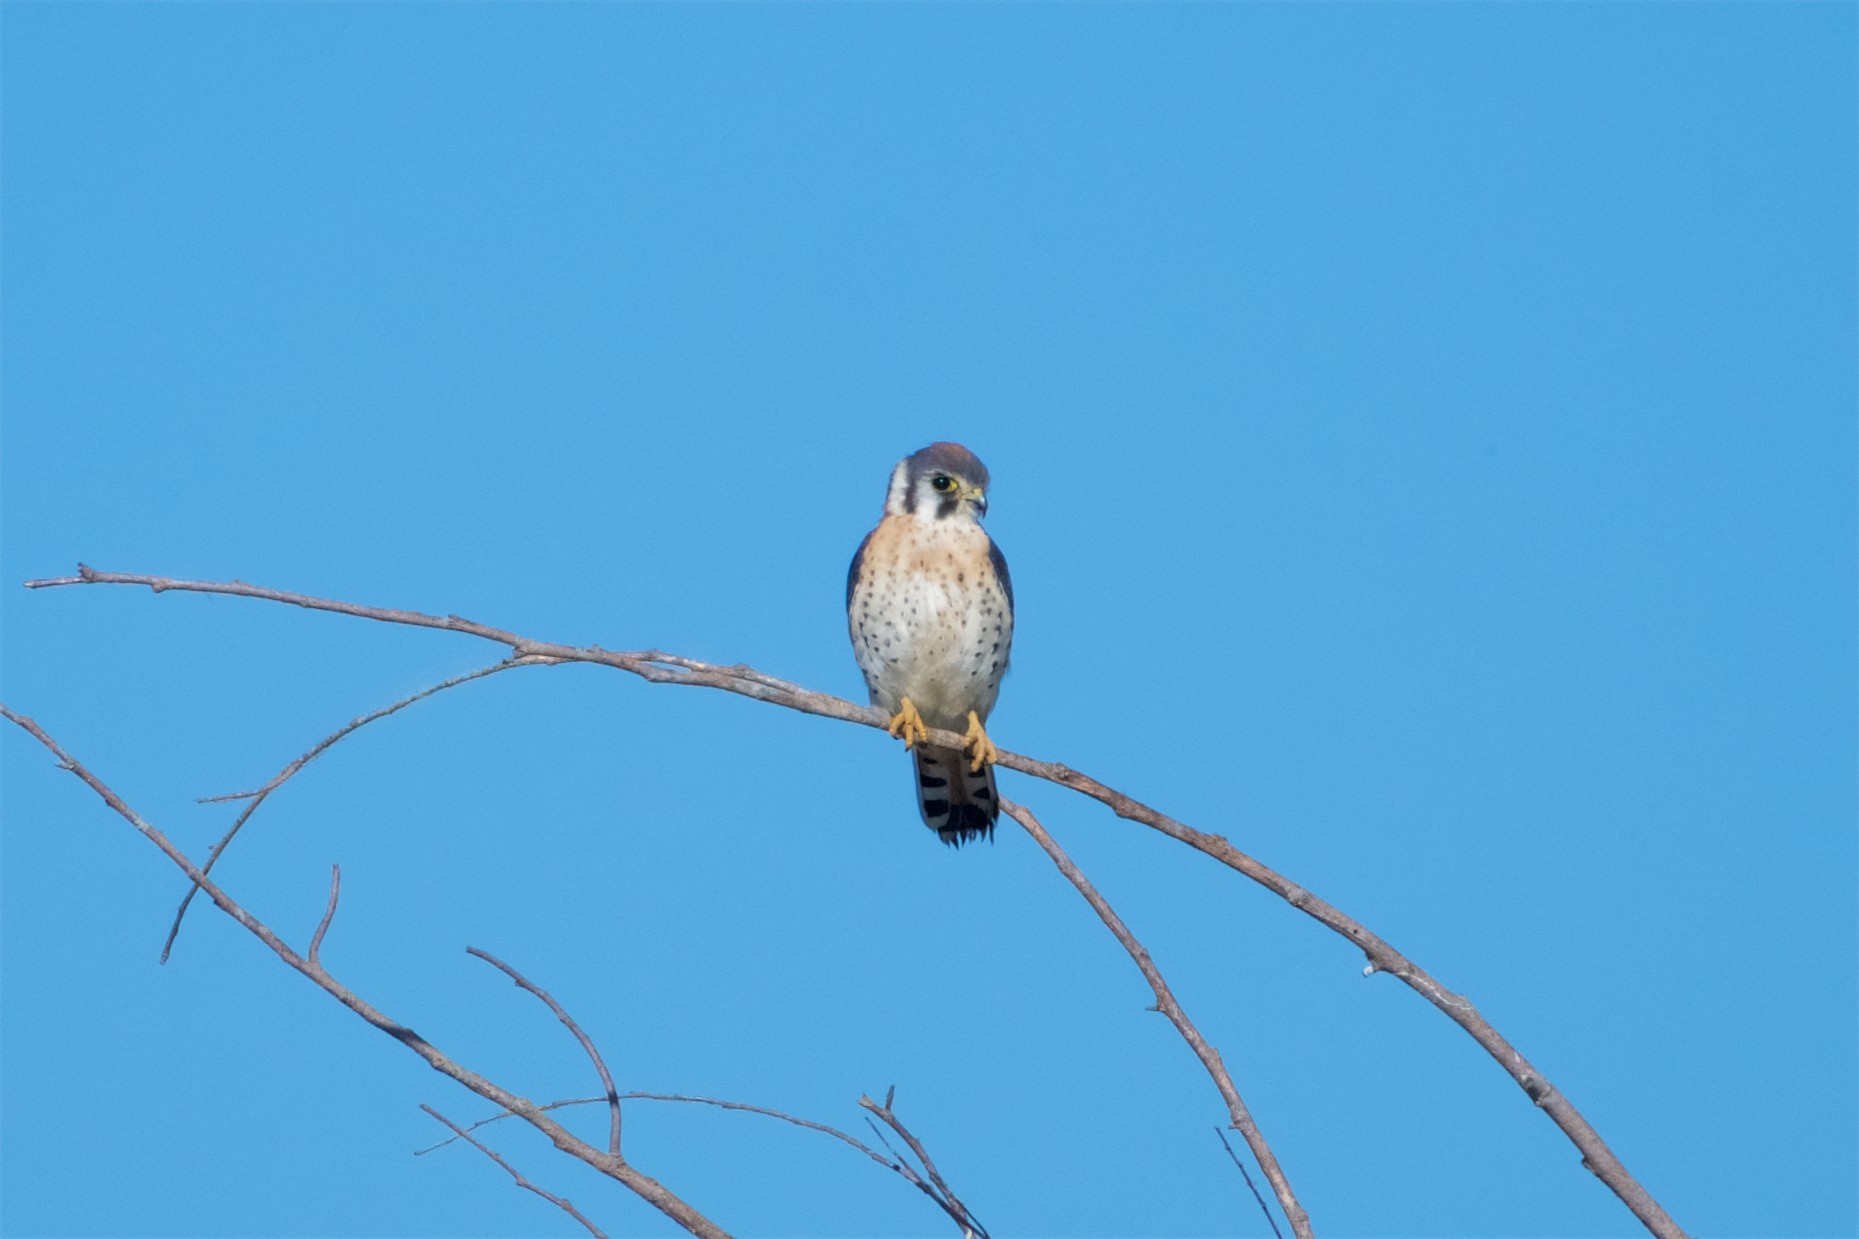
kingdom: Animalia
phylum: Chordata
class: Aves
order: Falconiformes
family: Falconidae
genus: Falco
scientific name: Falco sparverius
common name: American kestrel
